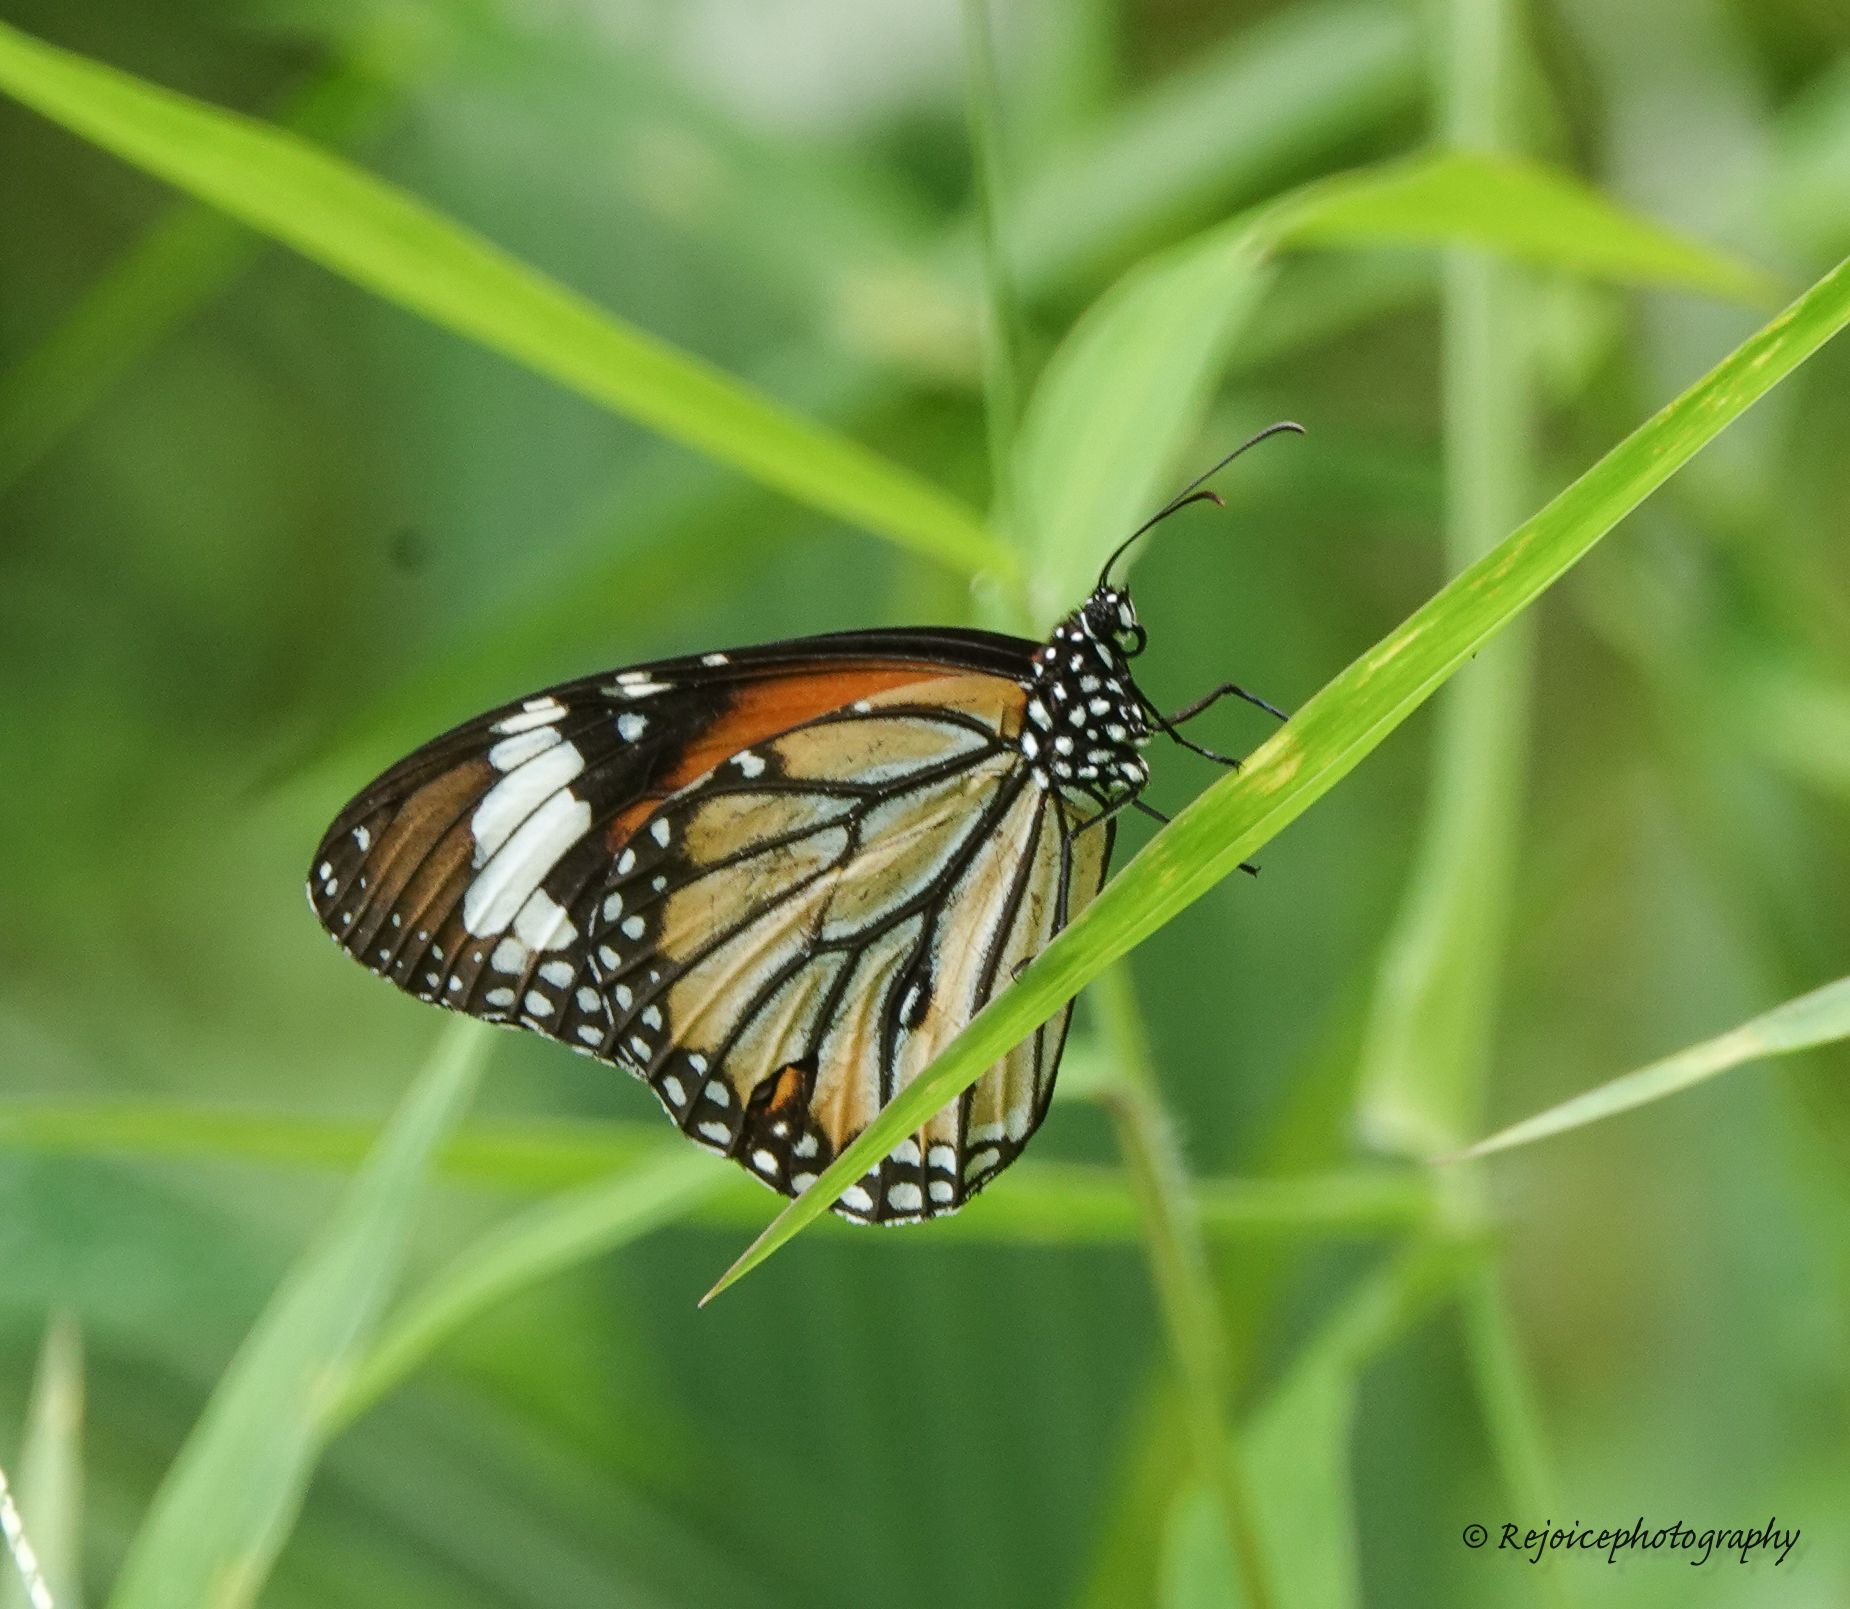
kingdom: Animalia
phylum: Arthropoda
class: Insecta
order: Lepidoptera
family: Nymphalidae
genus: Danaus
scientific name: Danaus genutia
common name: Common tiger butterfly
